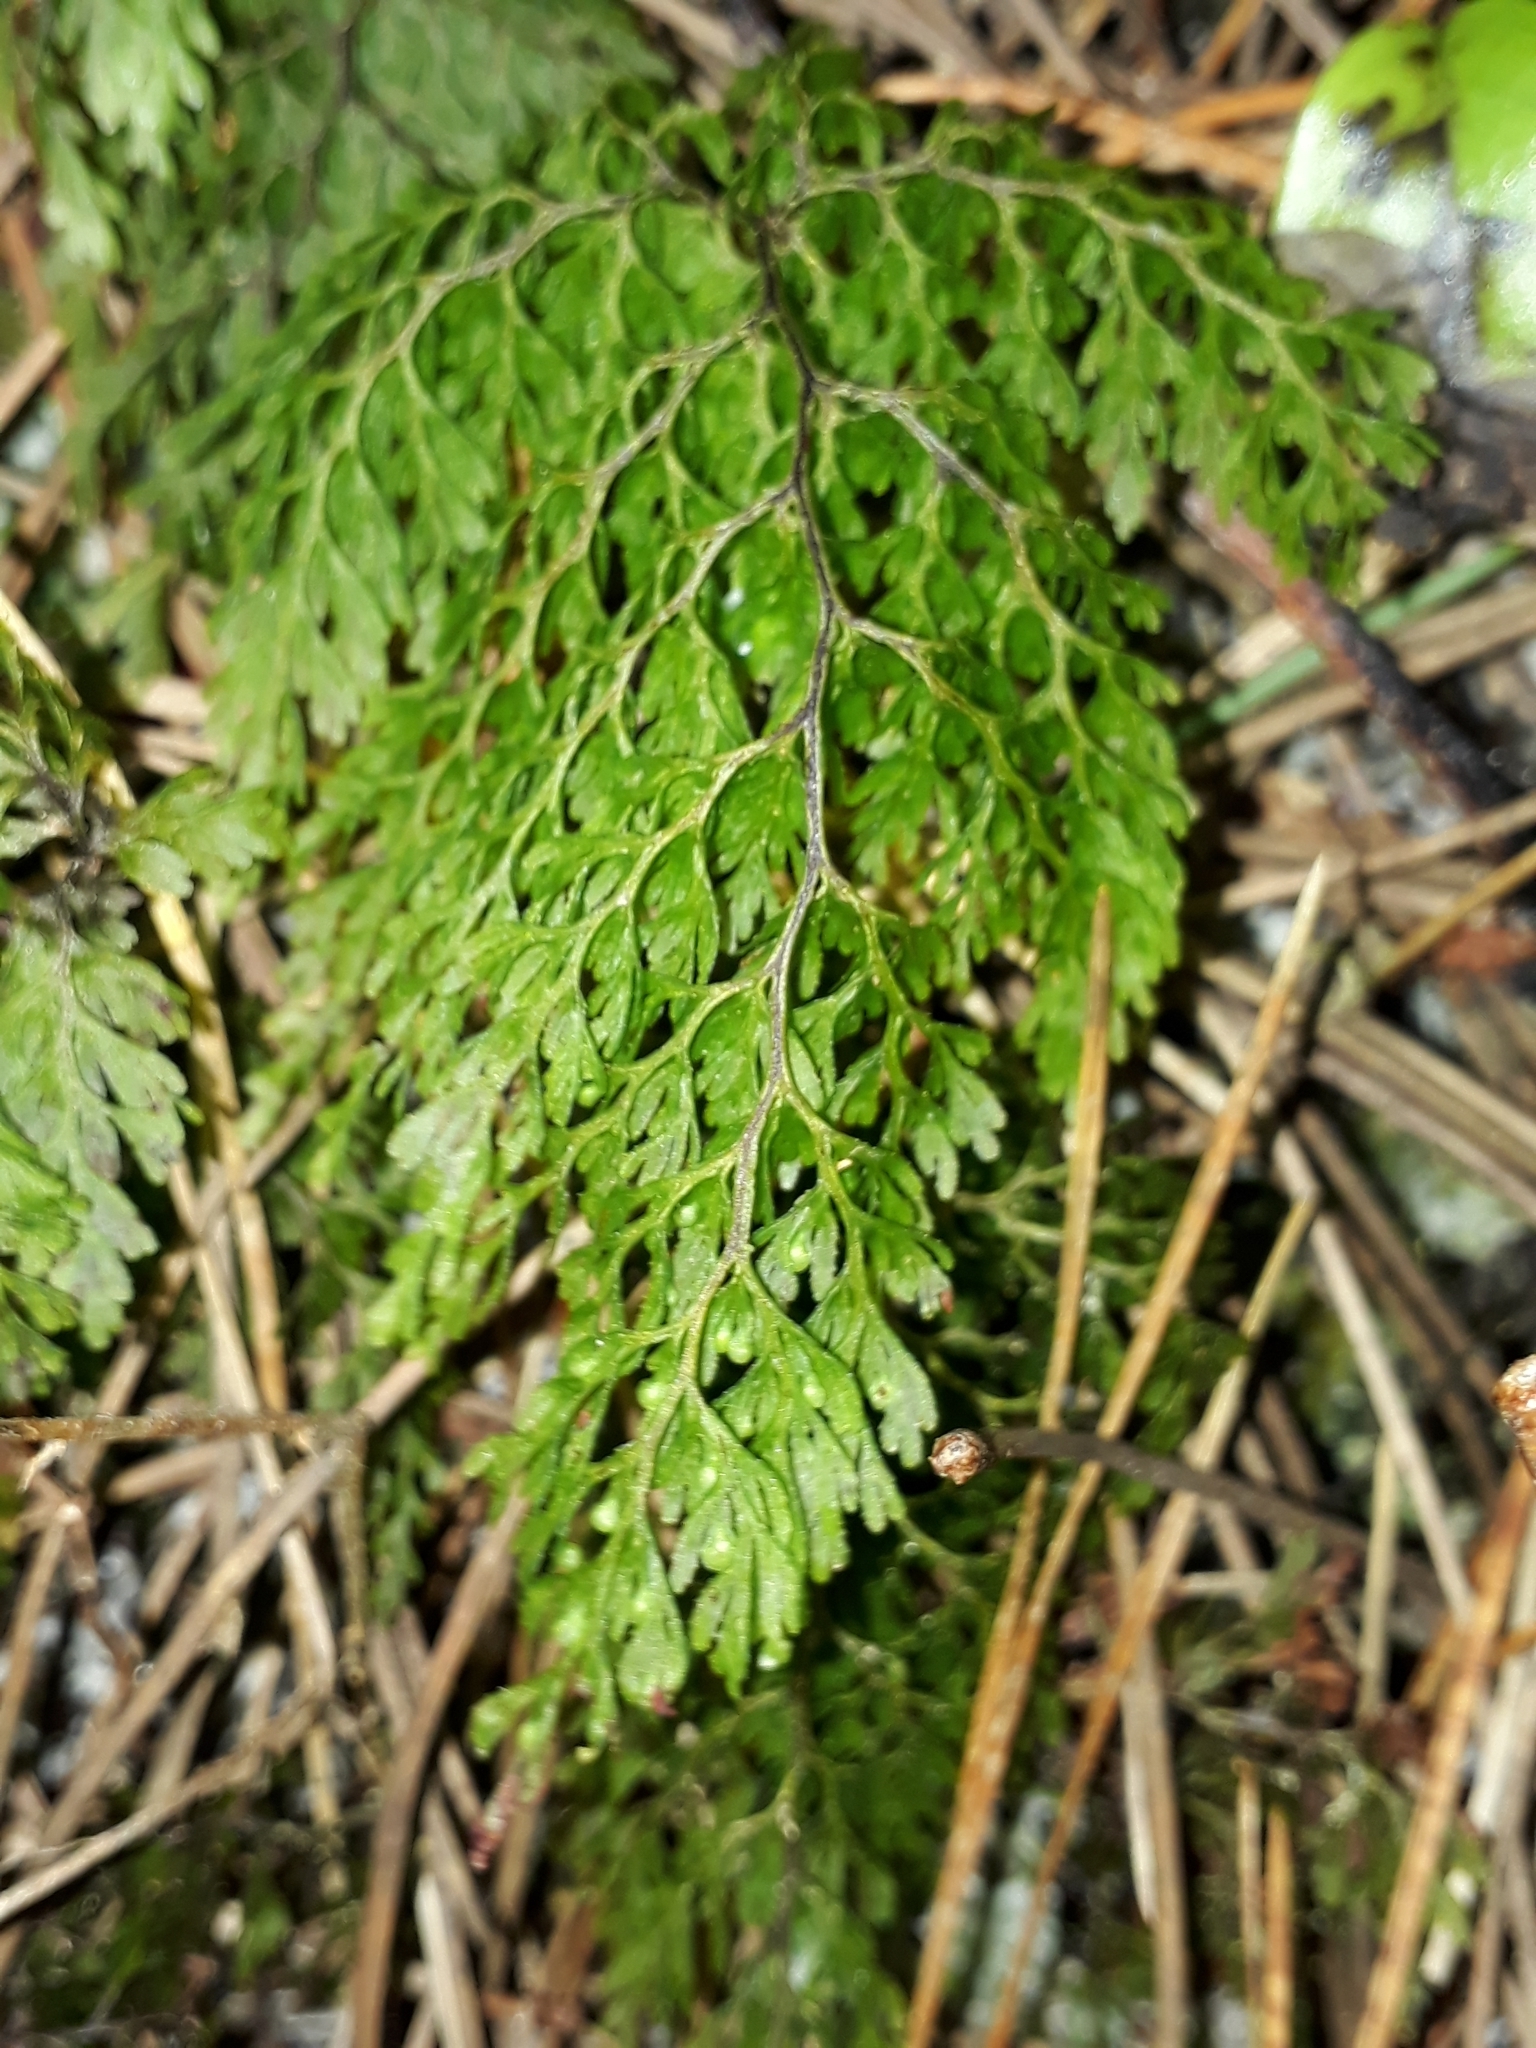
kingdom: Plantae
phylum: Tracheophyta
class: Polypodiopsida
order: Hymenophyllales
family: Hymenophyllaceae
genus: Hymenophyllum
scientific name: Hymenophyllum bivalve
